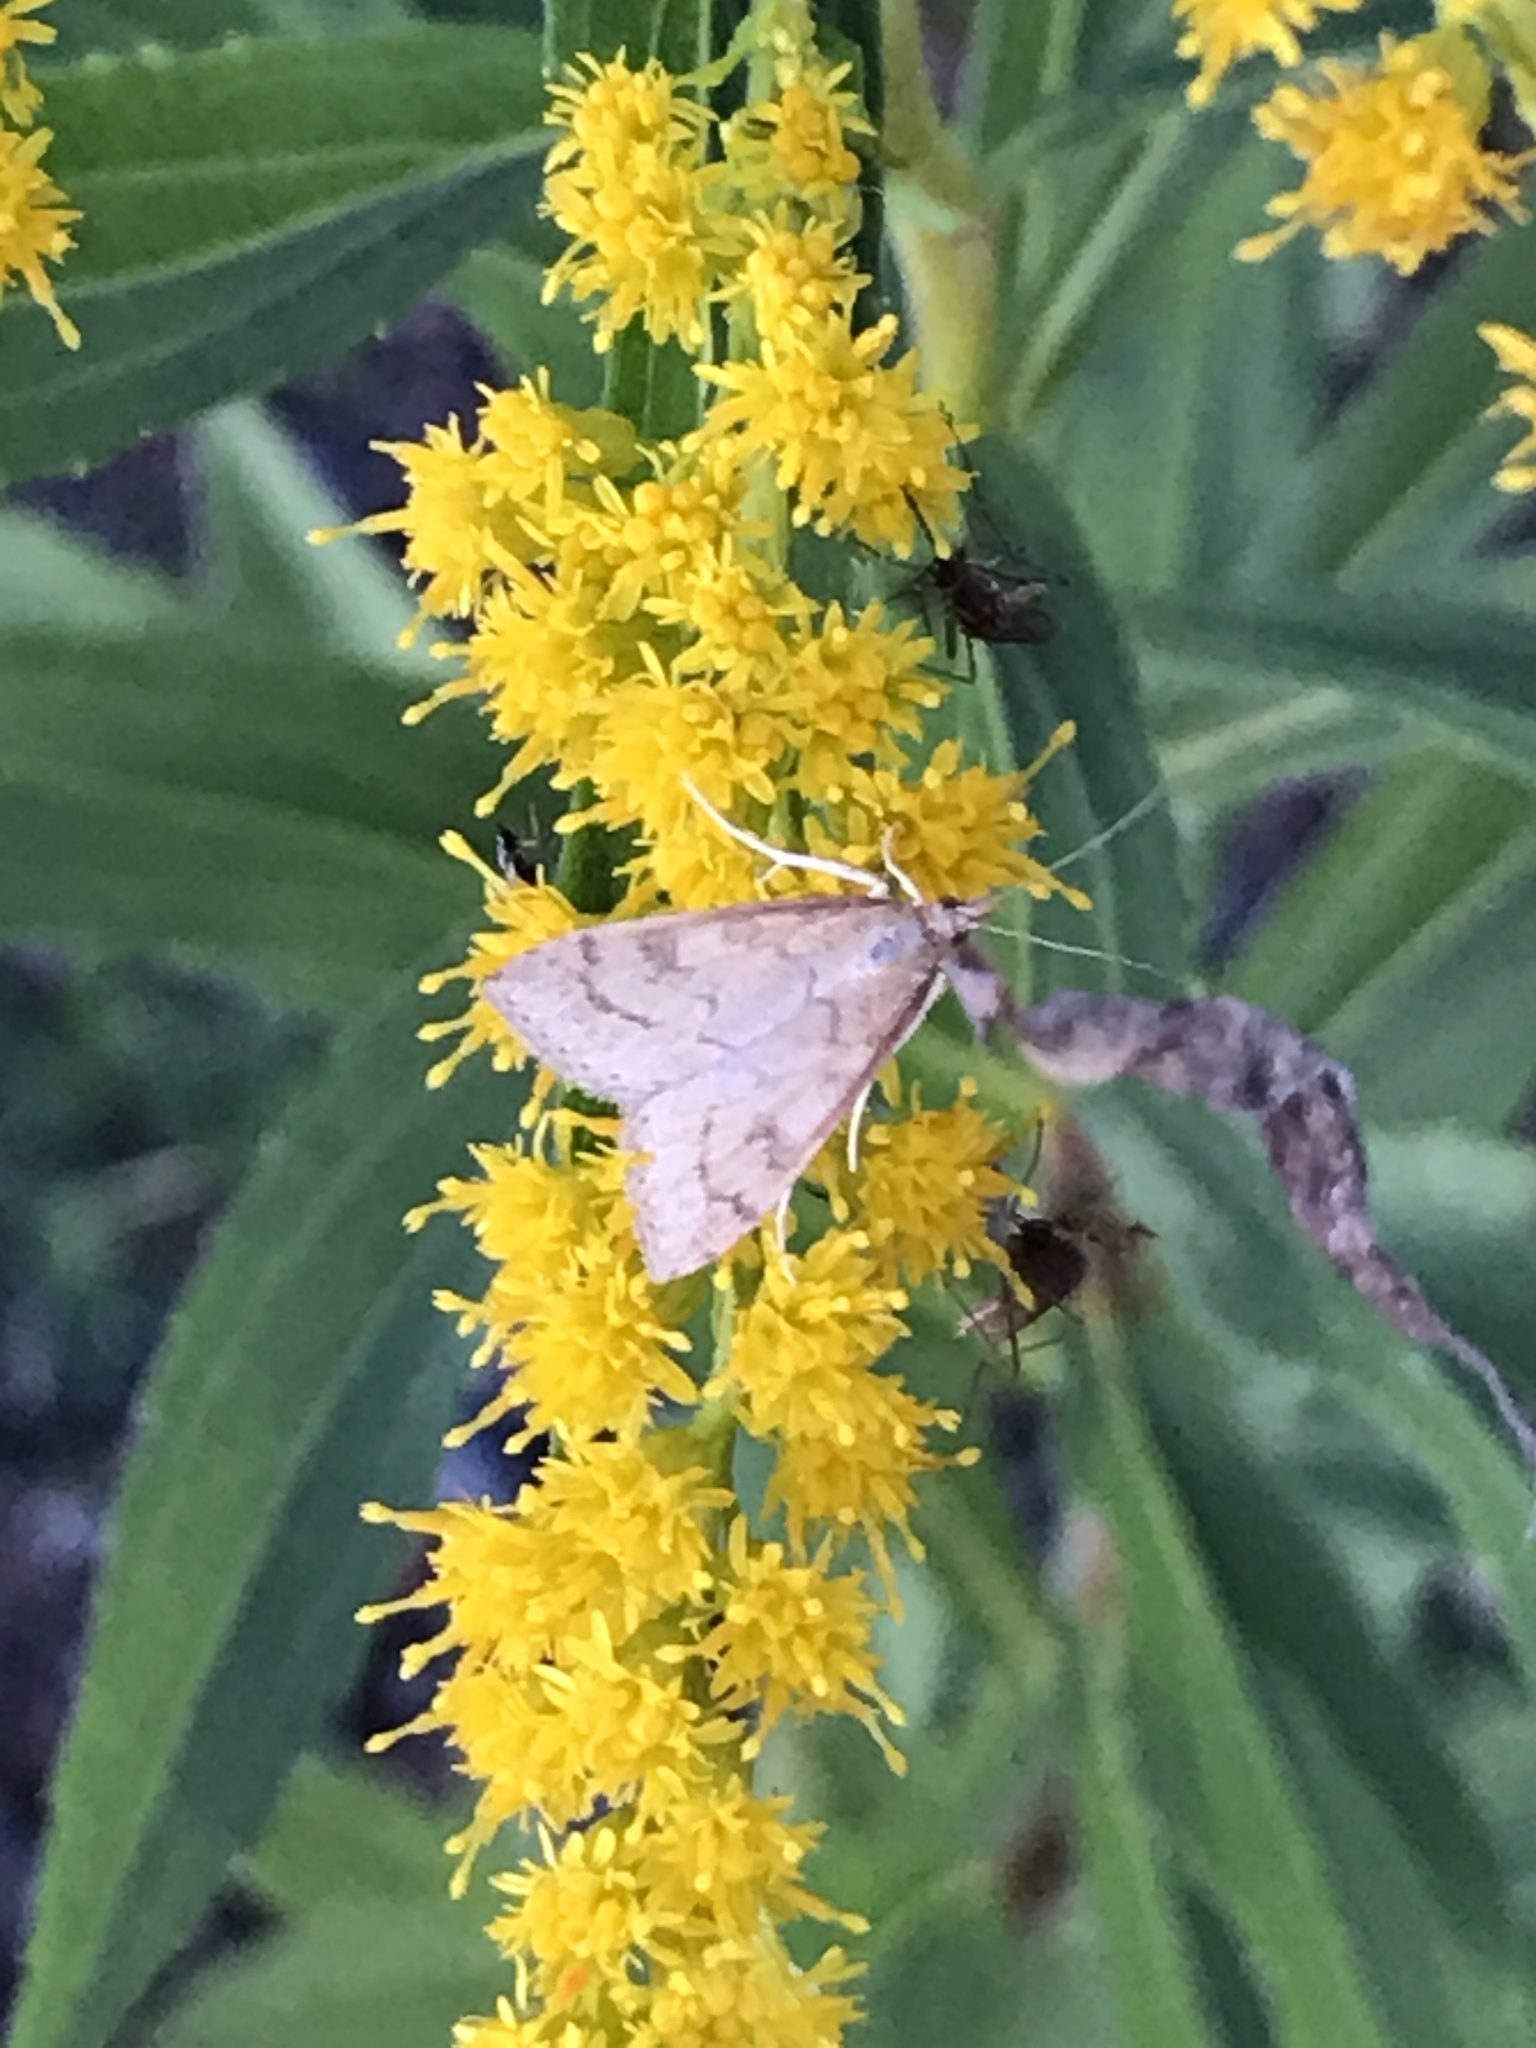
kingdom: Animalia
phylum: Arthropoda
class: Insecta
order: Lepidoptera
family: Crambidae
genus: Udea
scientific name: Udea rubigalis
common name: Celery leaftier moth
